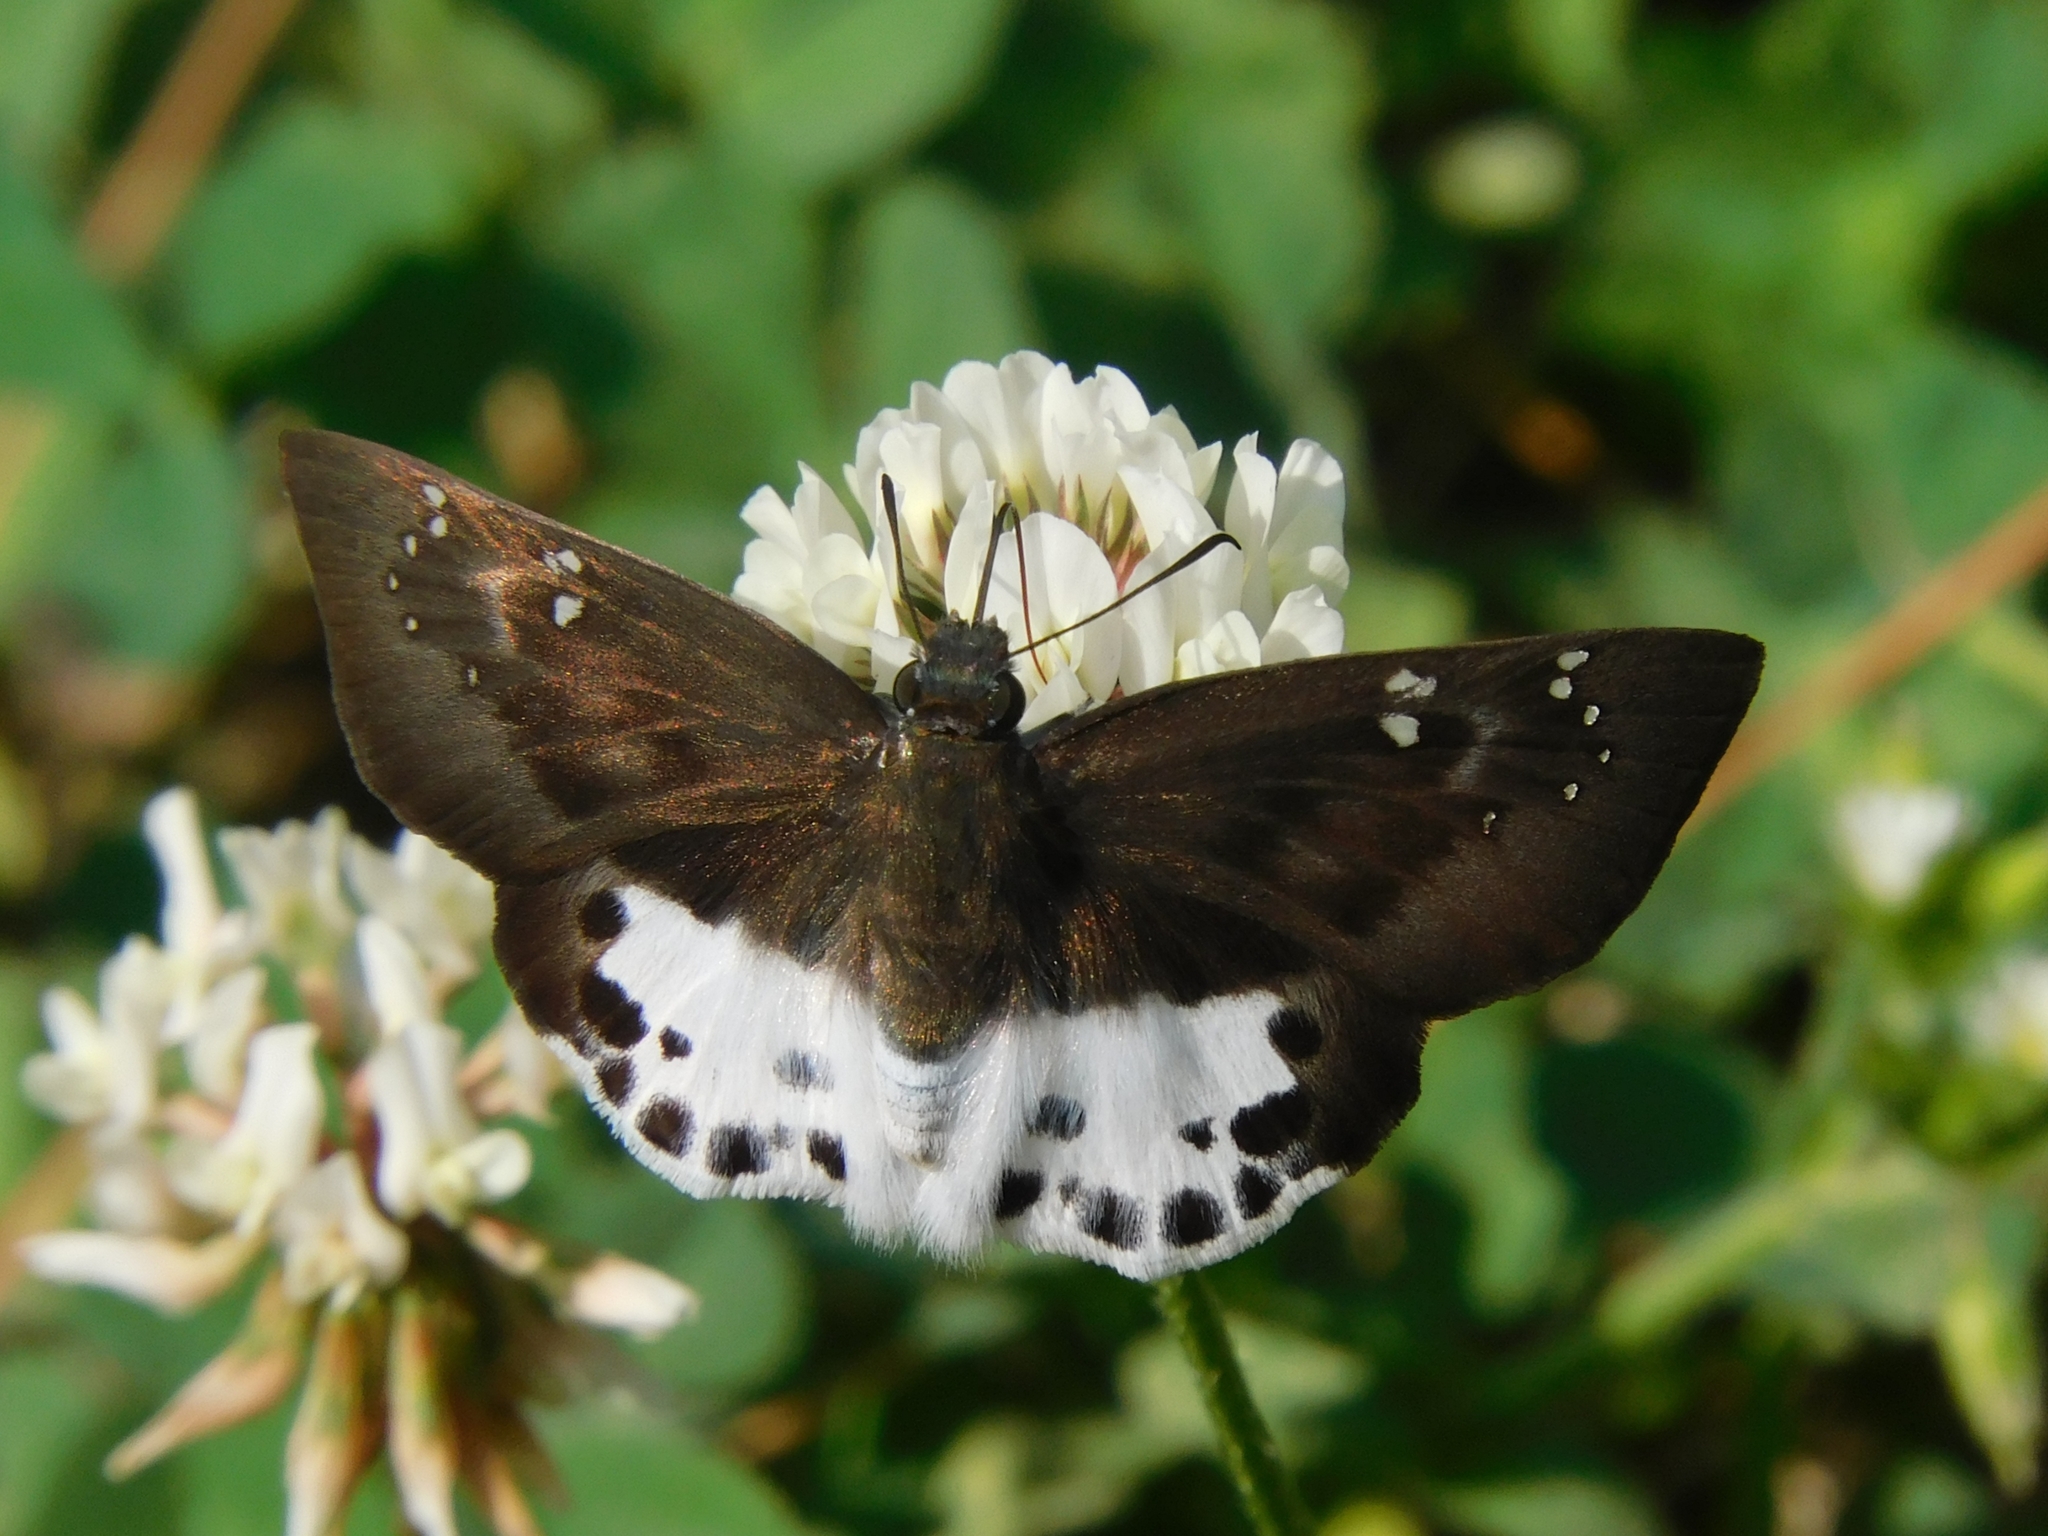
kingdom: Animalia
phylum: Arthropoda
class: Insecta
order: Lepidoptera
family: Hesperiidae
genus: Tagiades
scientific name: Tagiades menaka
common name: Dark-edged snow flat
